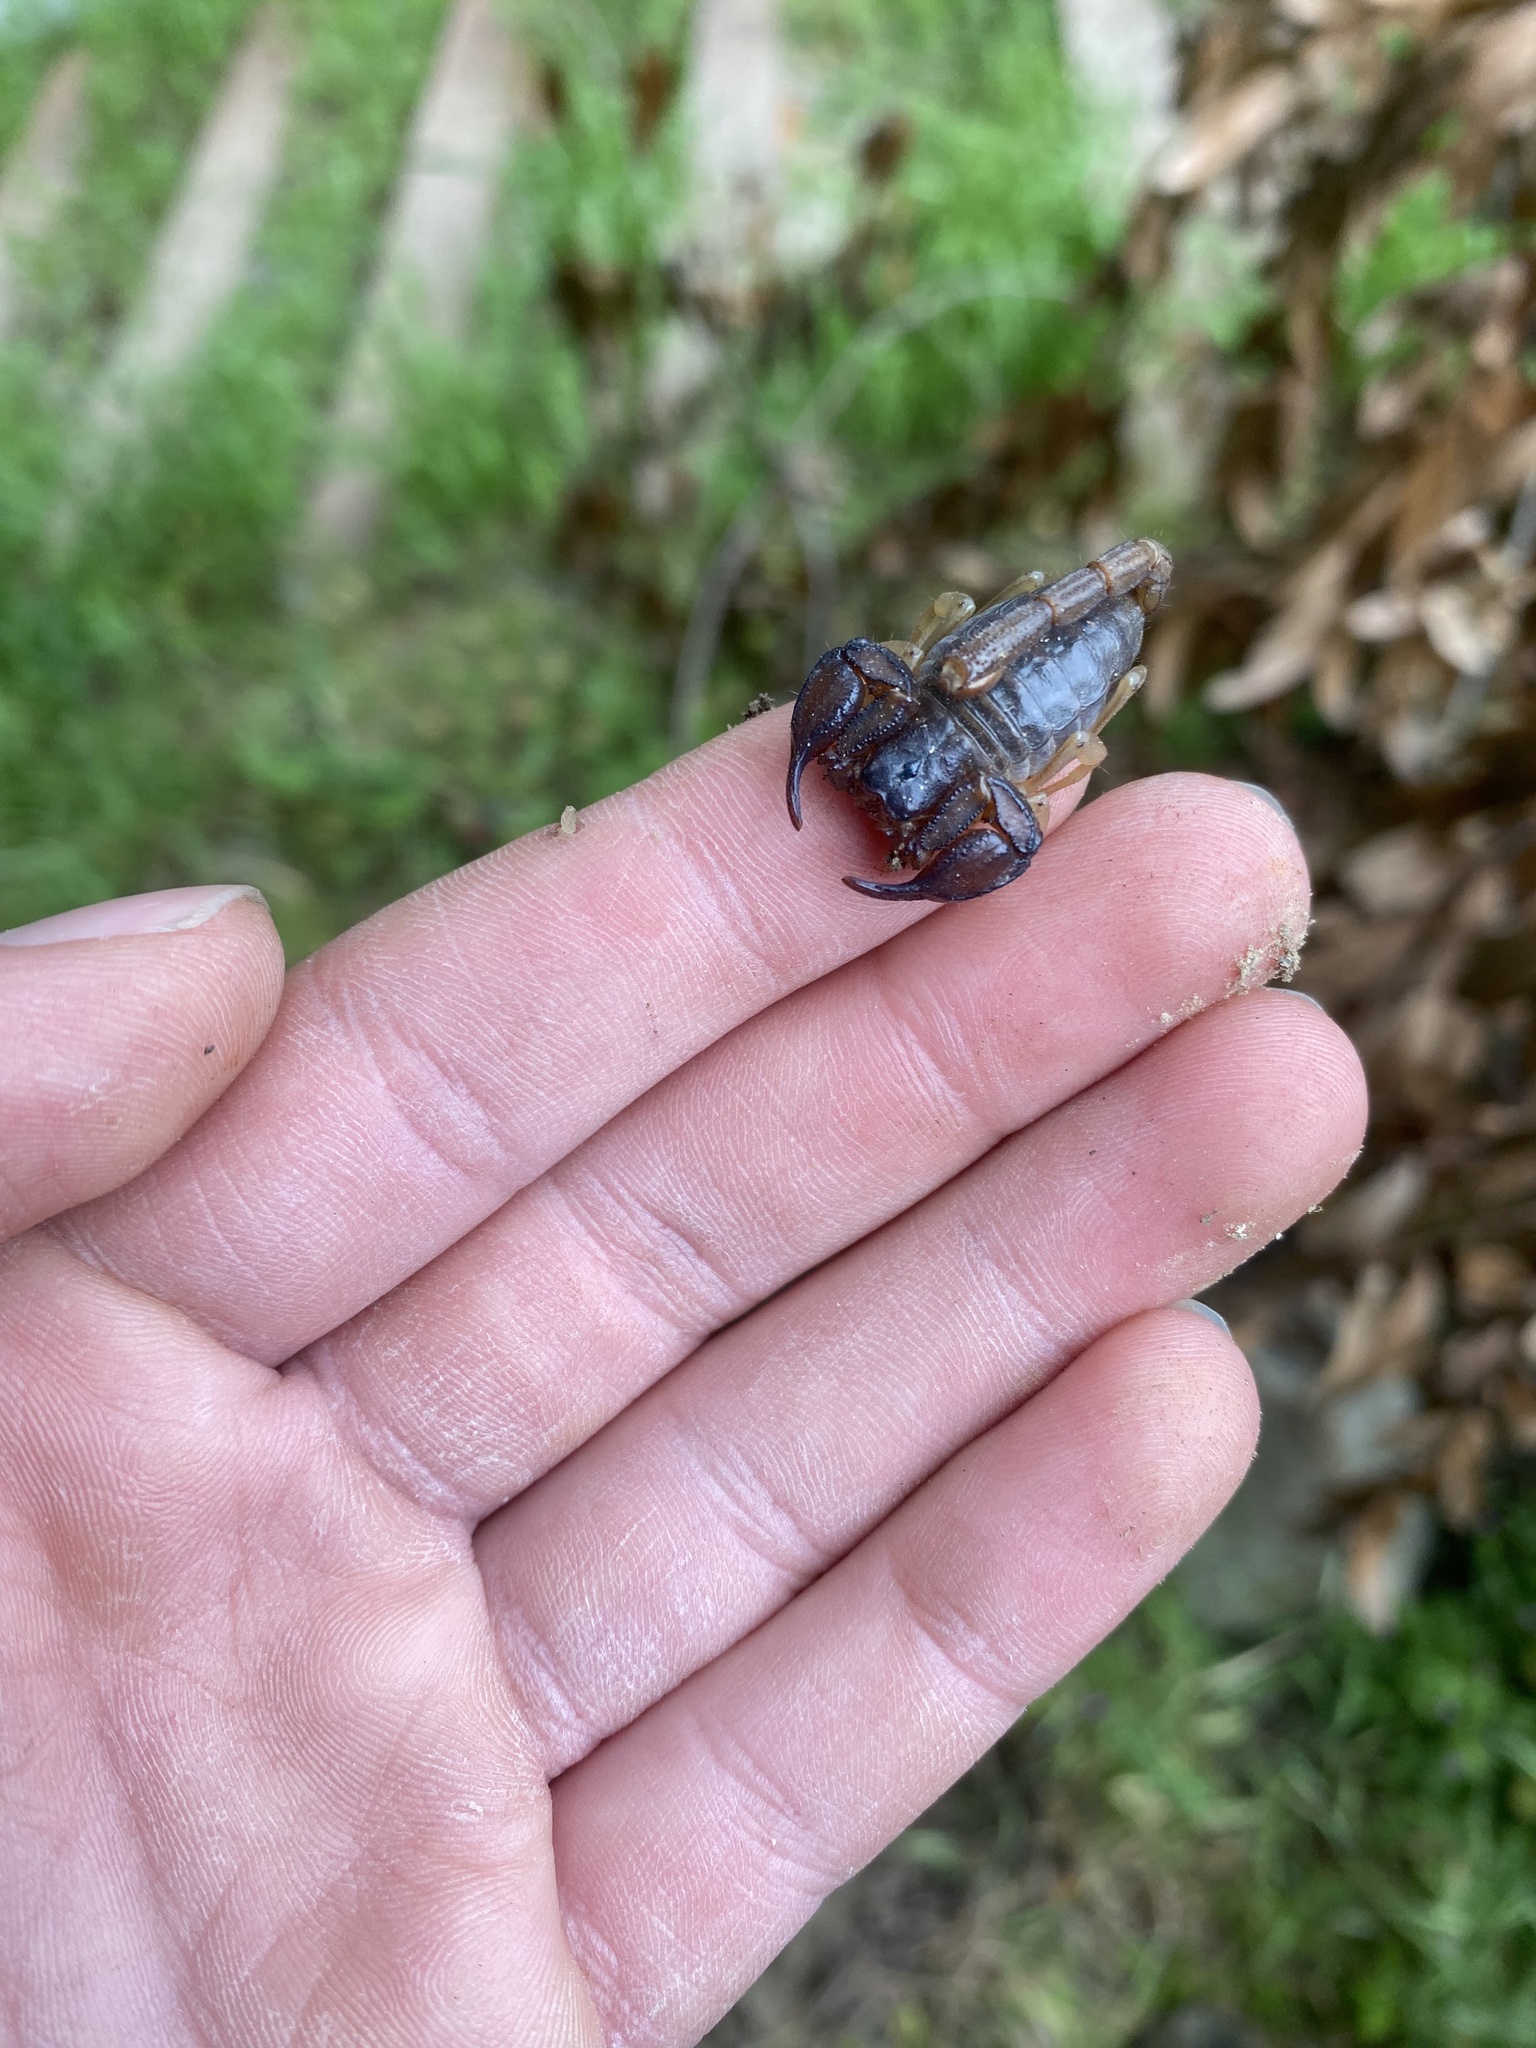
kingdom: Animalia
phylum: Arthropoda
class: Arachnida
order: Scorpiones
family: Chactidae
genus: Uroctonus
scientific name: Uroctonus mordax
